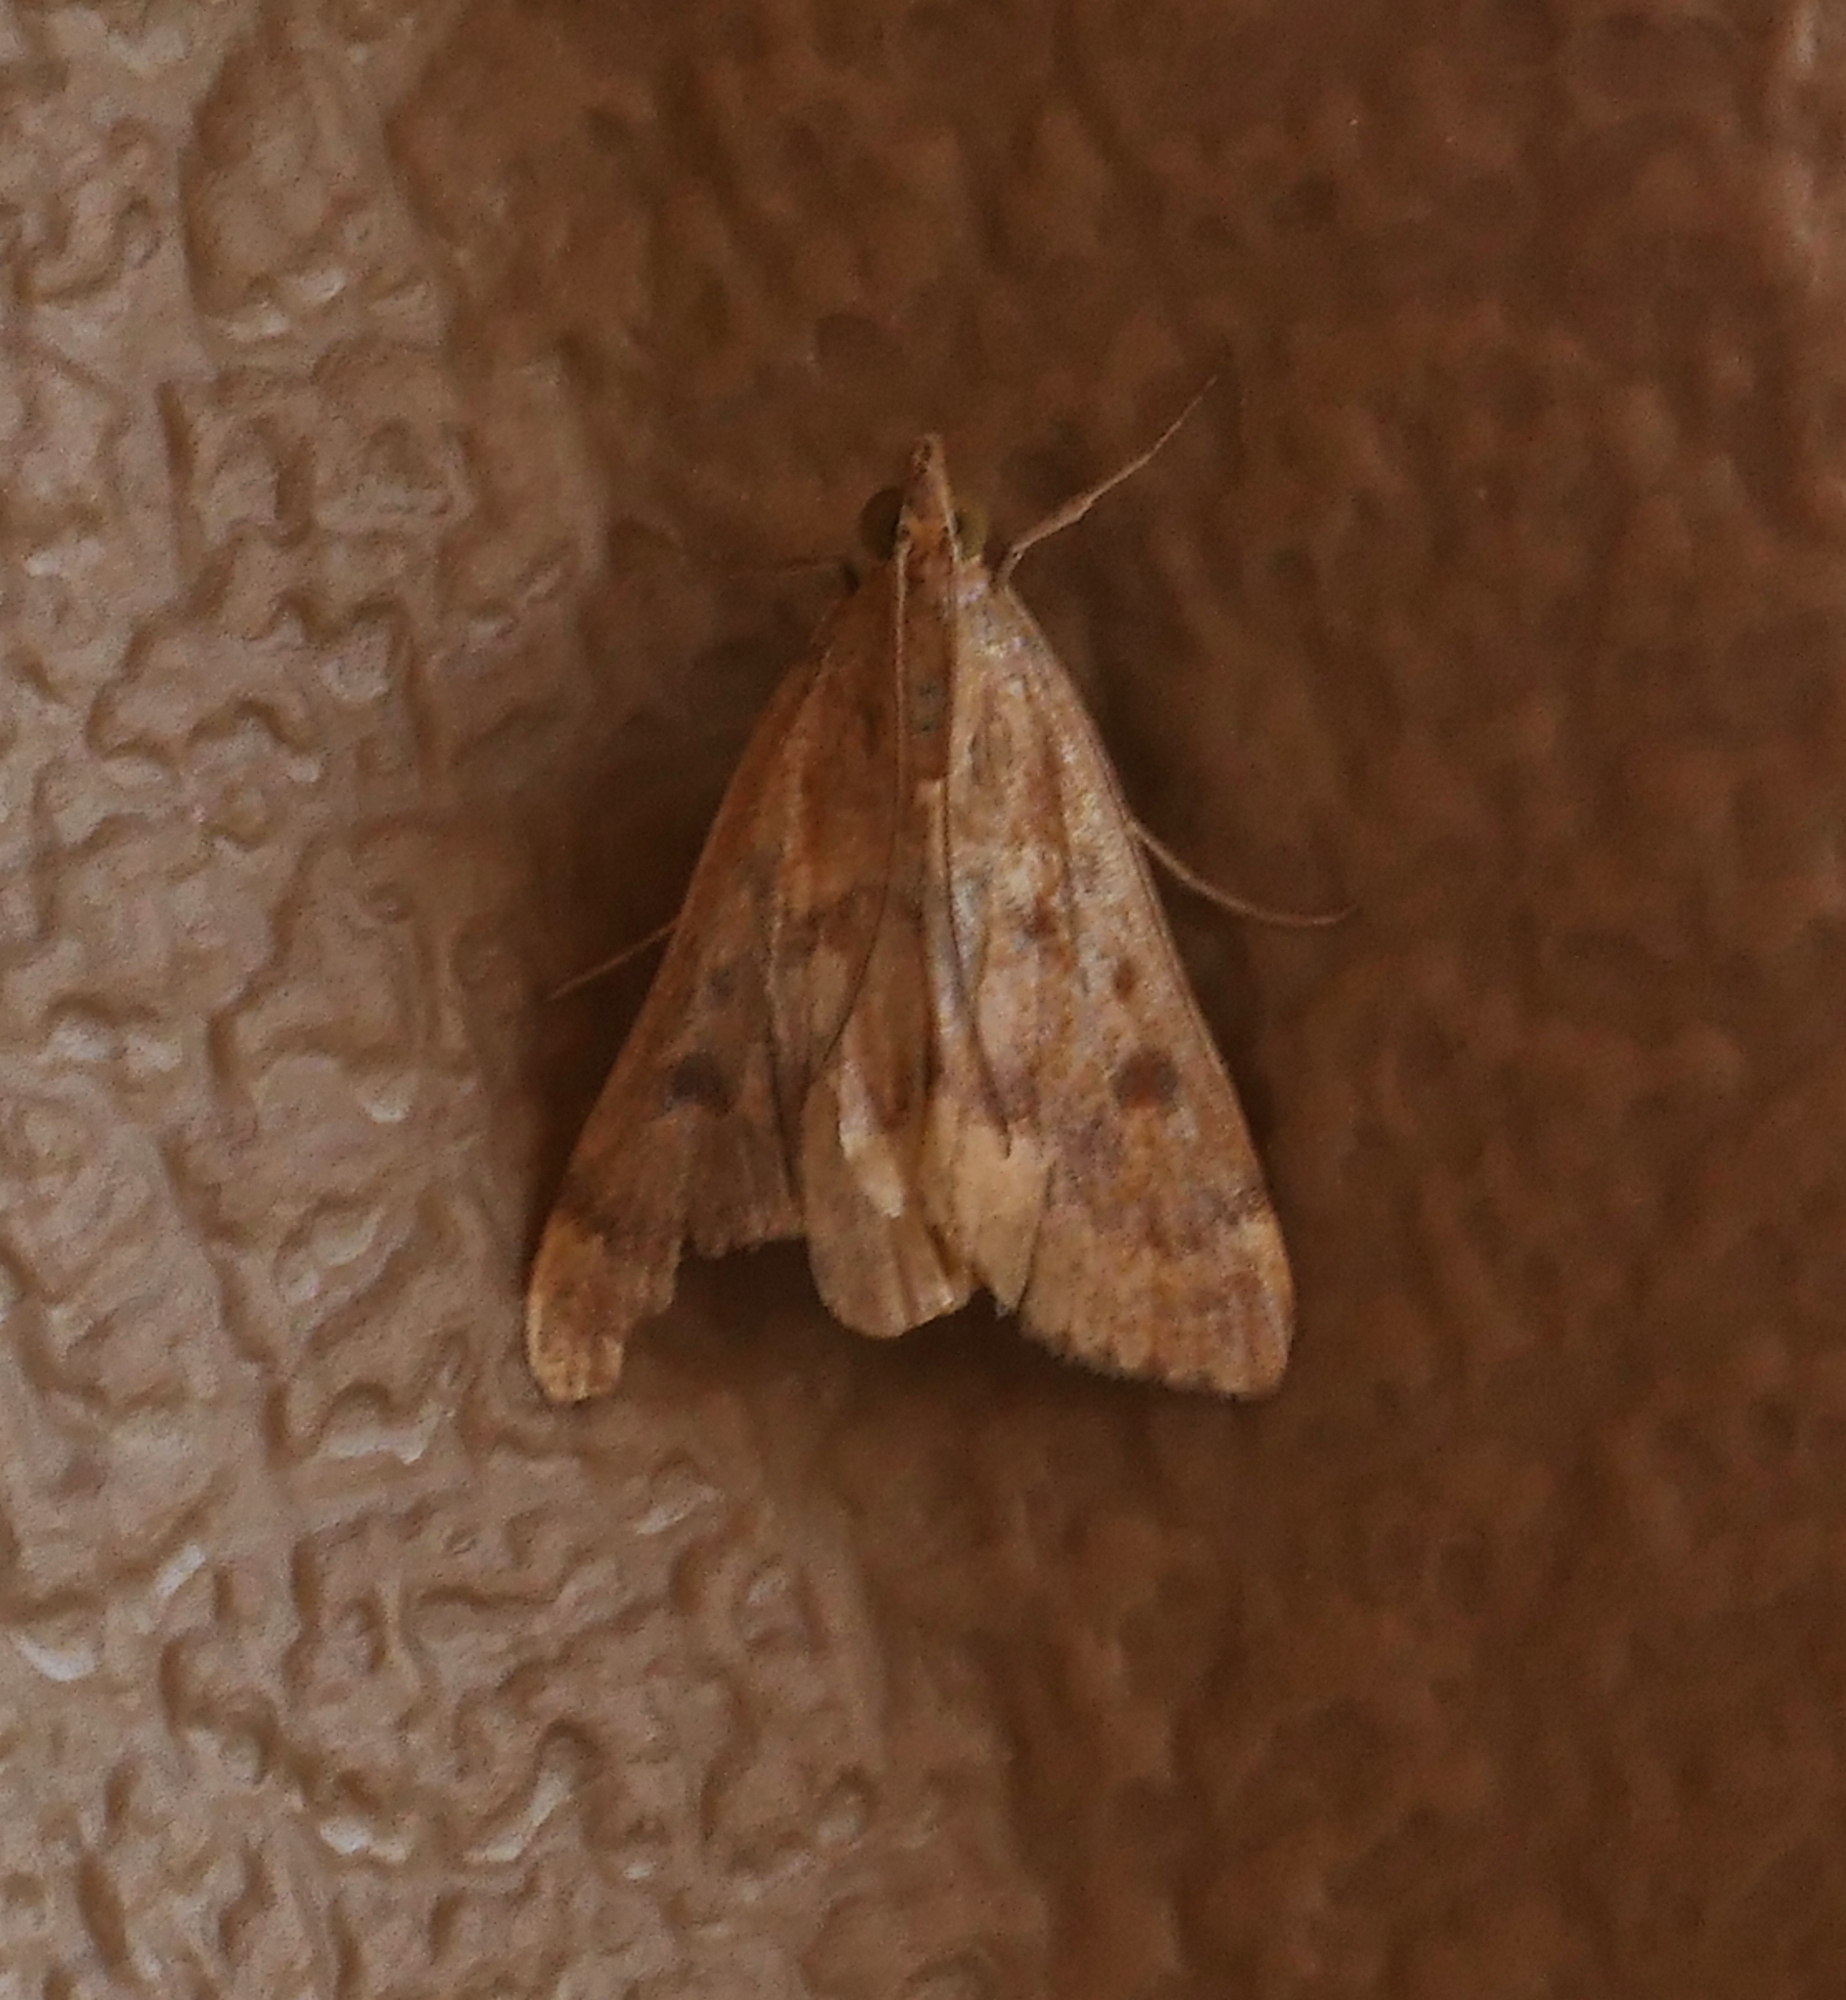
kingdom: Animalia
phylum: Arthropoda
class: Insecta
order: Lepidoptera
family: Crambidae
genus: Achyra
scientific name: Achyra rantalis
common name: Garden webworm
